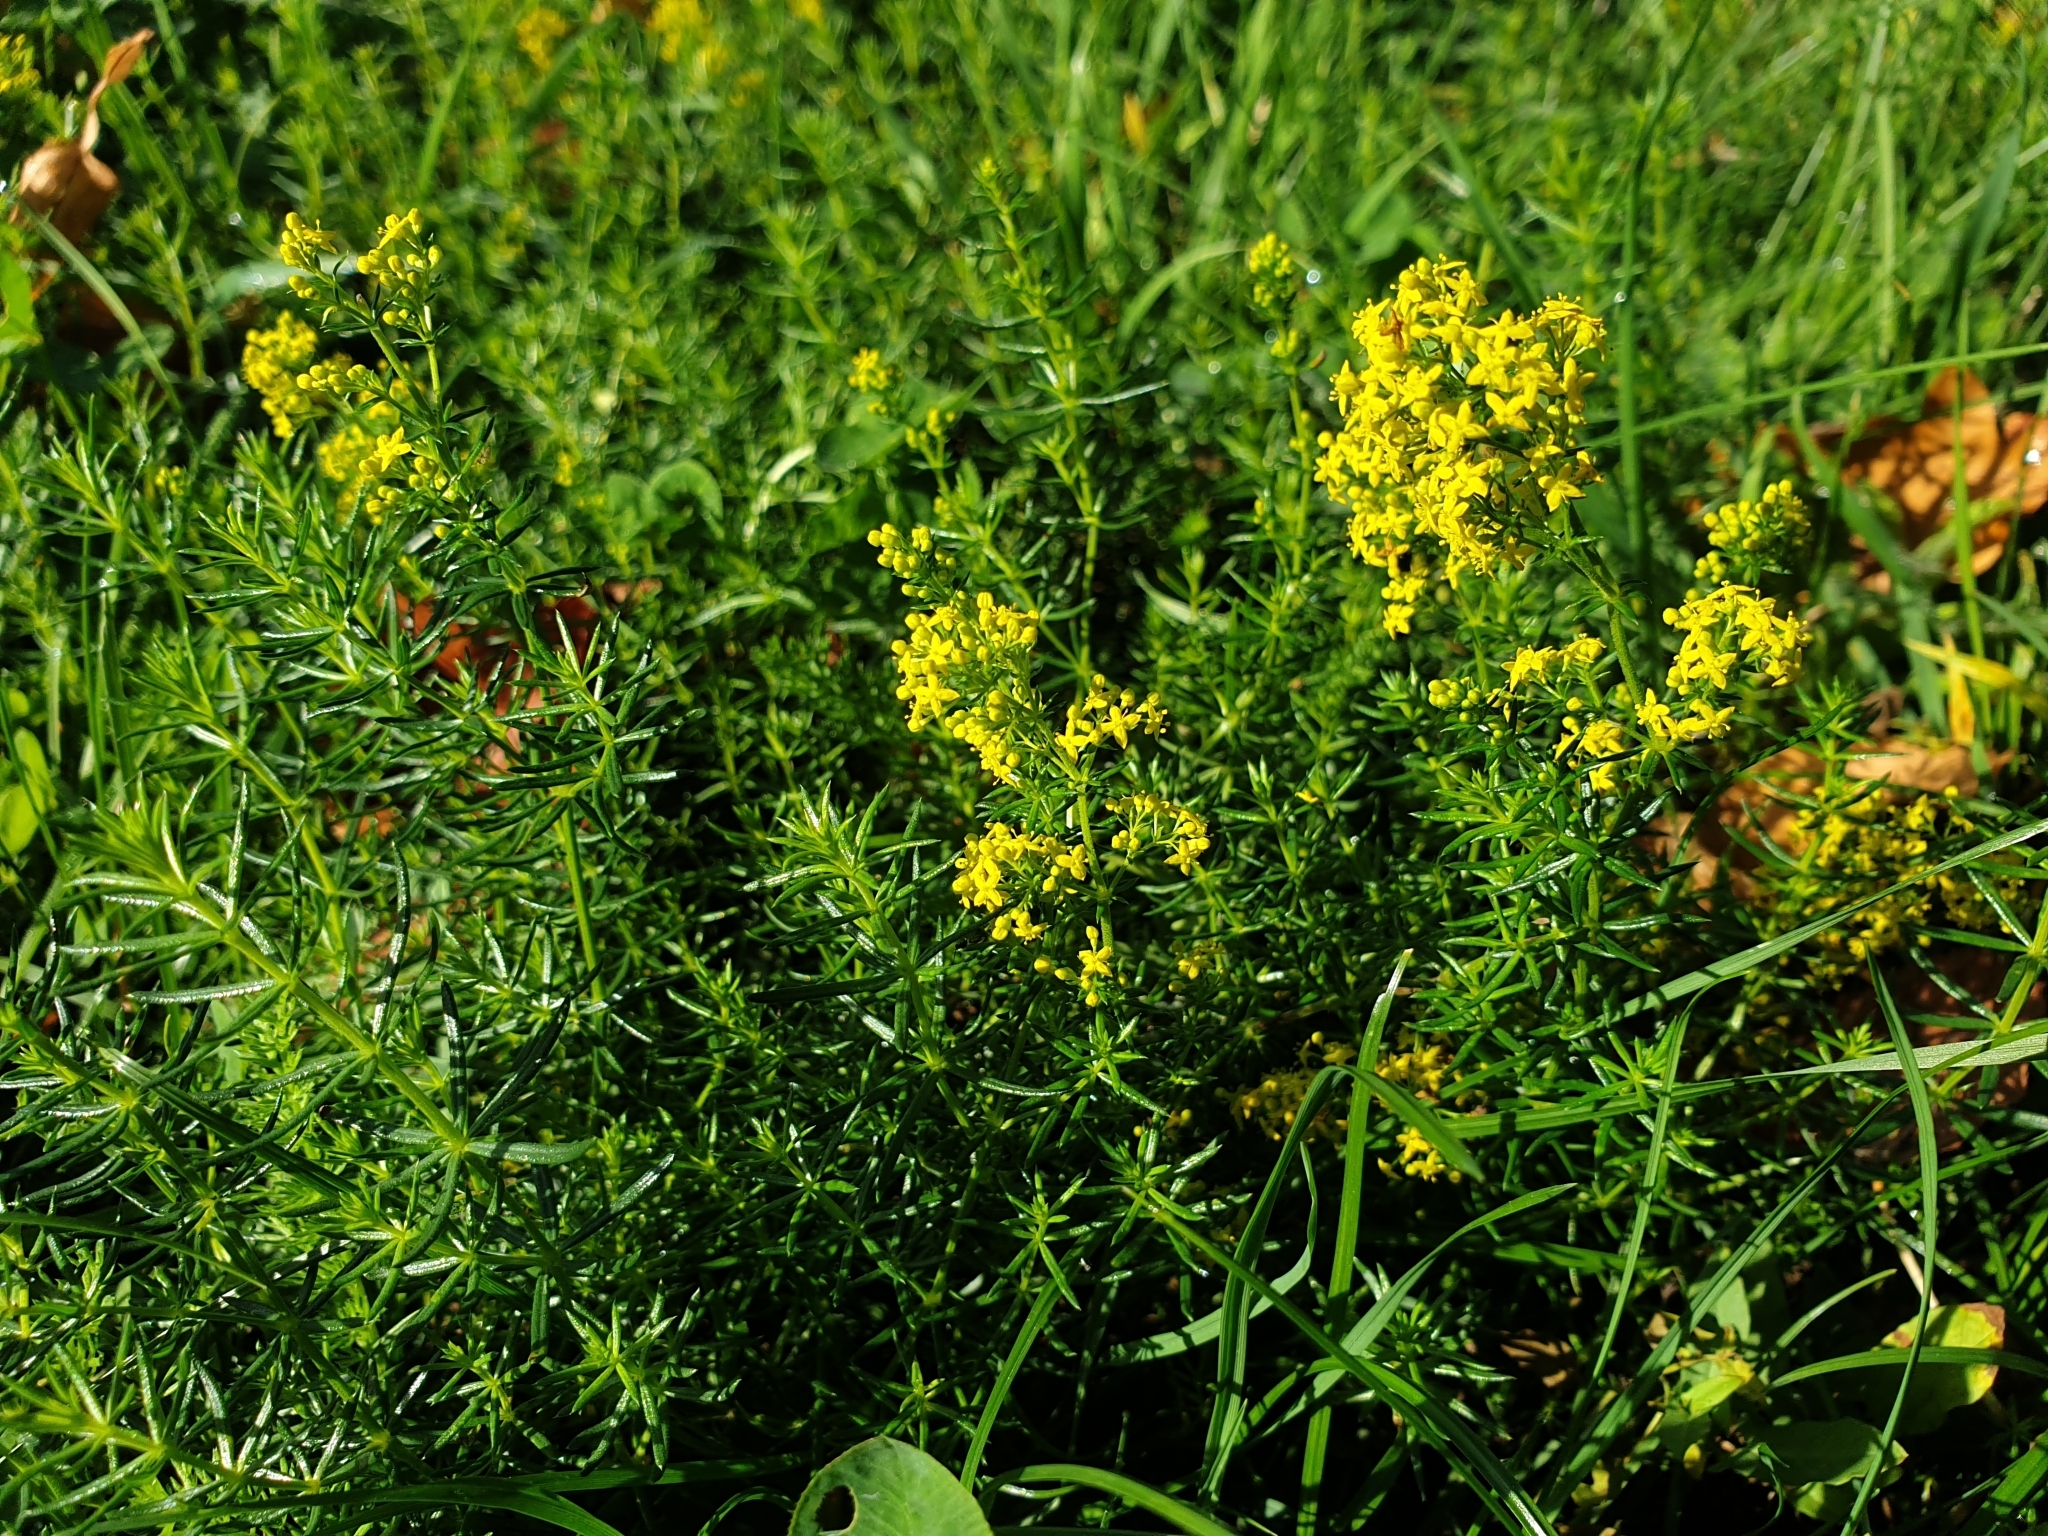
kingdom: Plantae
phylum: Tracheophyta
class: Magnoliopsida
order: Gentianales
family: Rubiaceae
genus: Galium
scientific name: Galium verum
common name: Lady's bedstraw
